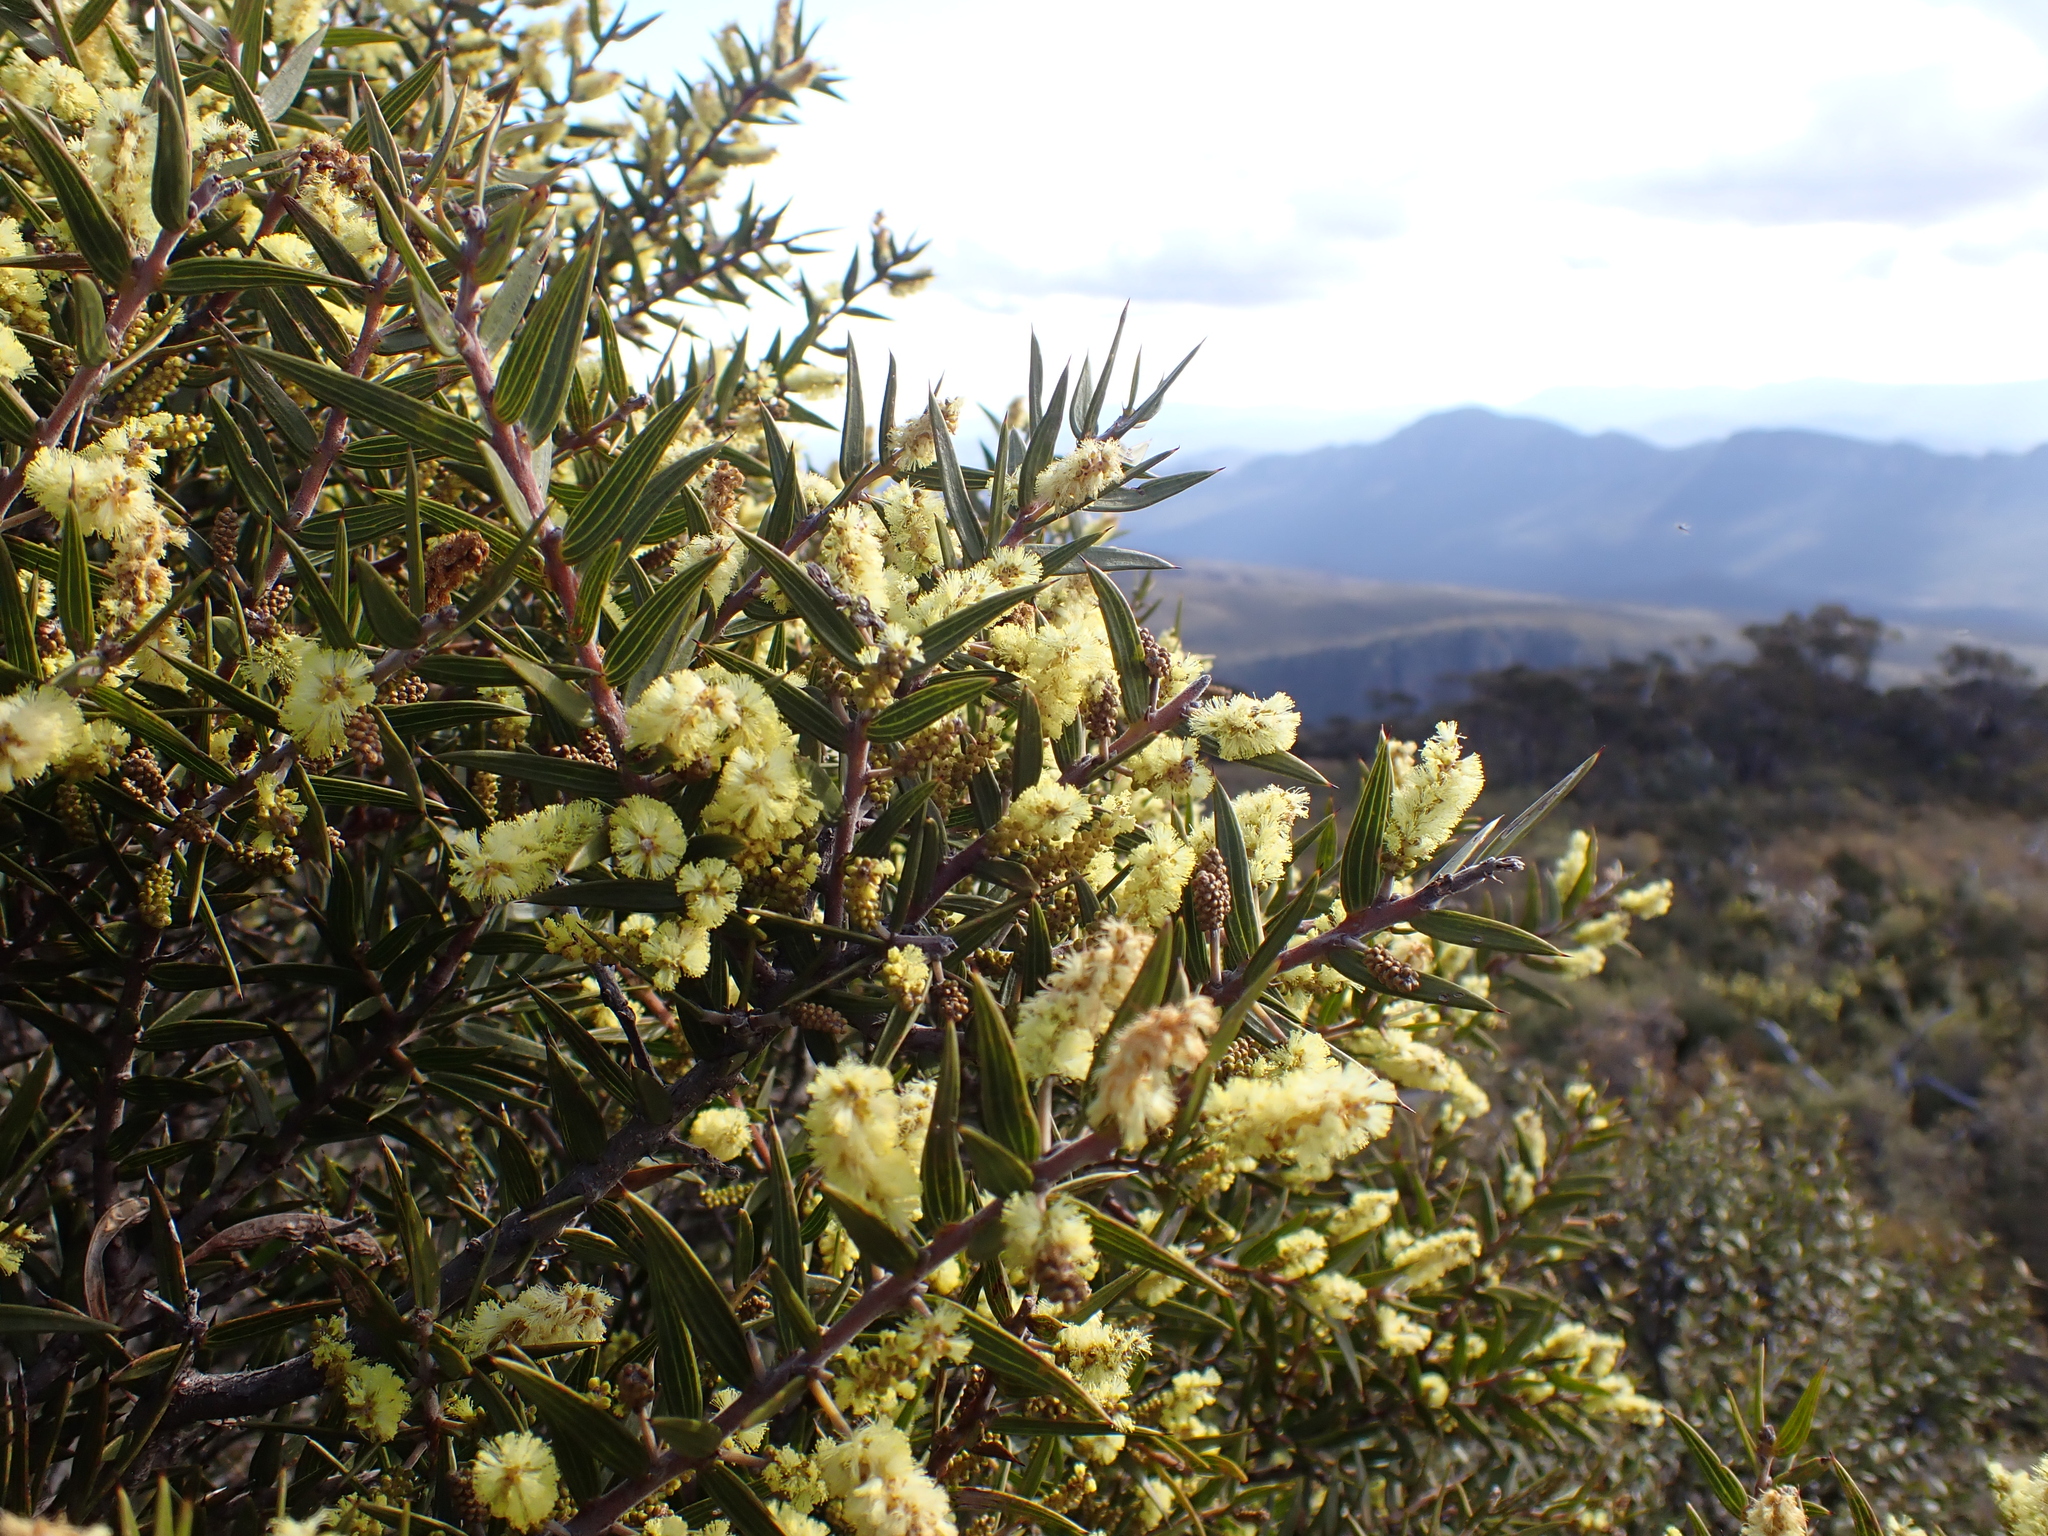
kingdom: Plantae
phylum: Tracheophyta
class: Magnoliopsida
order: Fabales
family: Fabaceae
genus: Acacia
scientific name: Acacia oxycedrus
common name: Spike wattle
